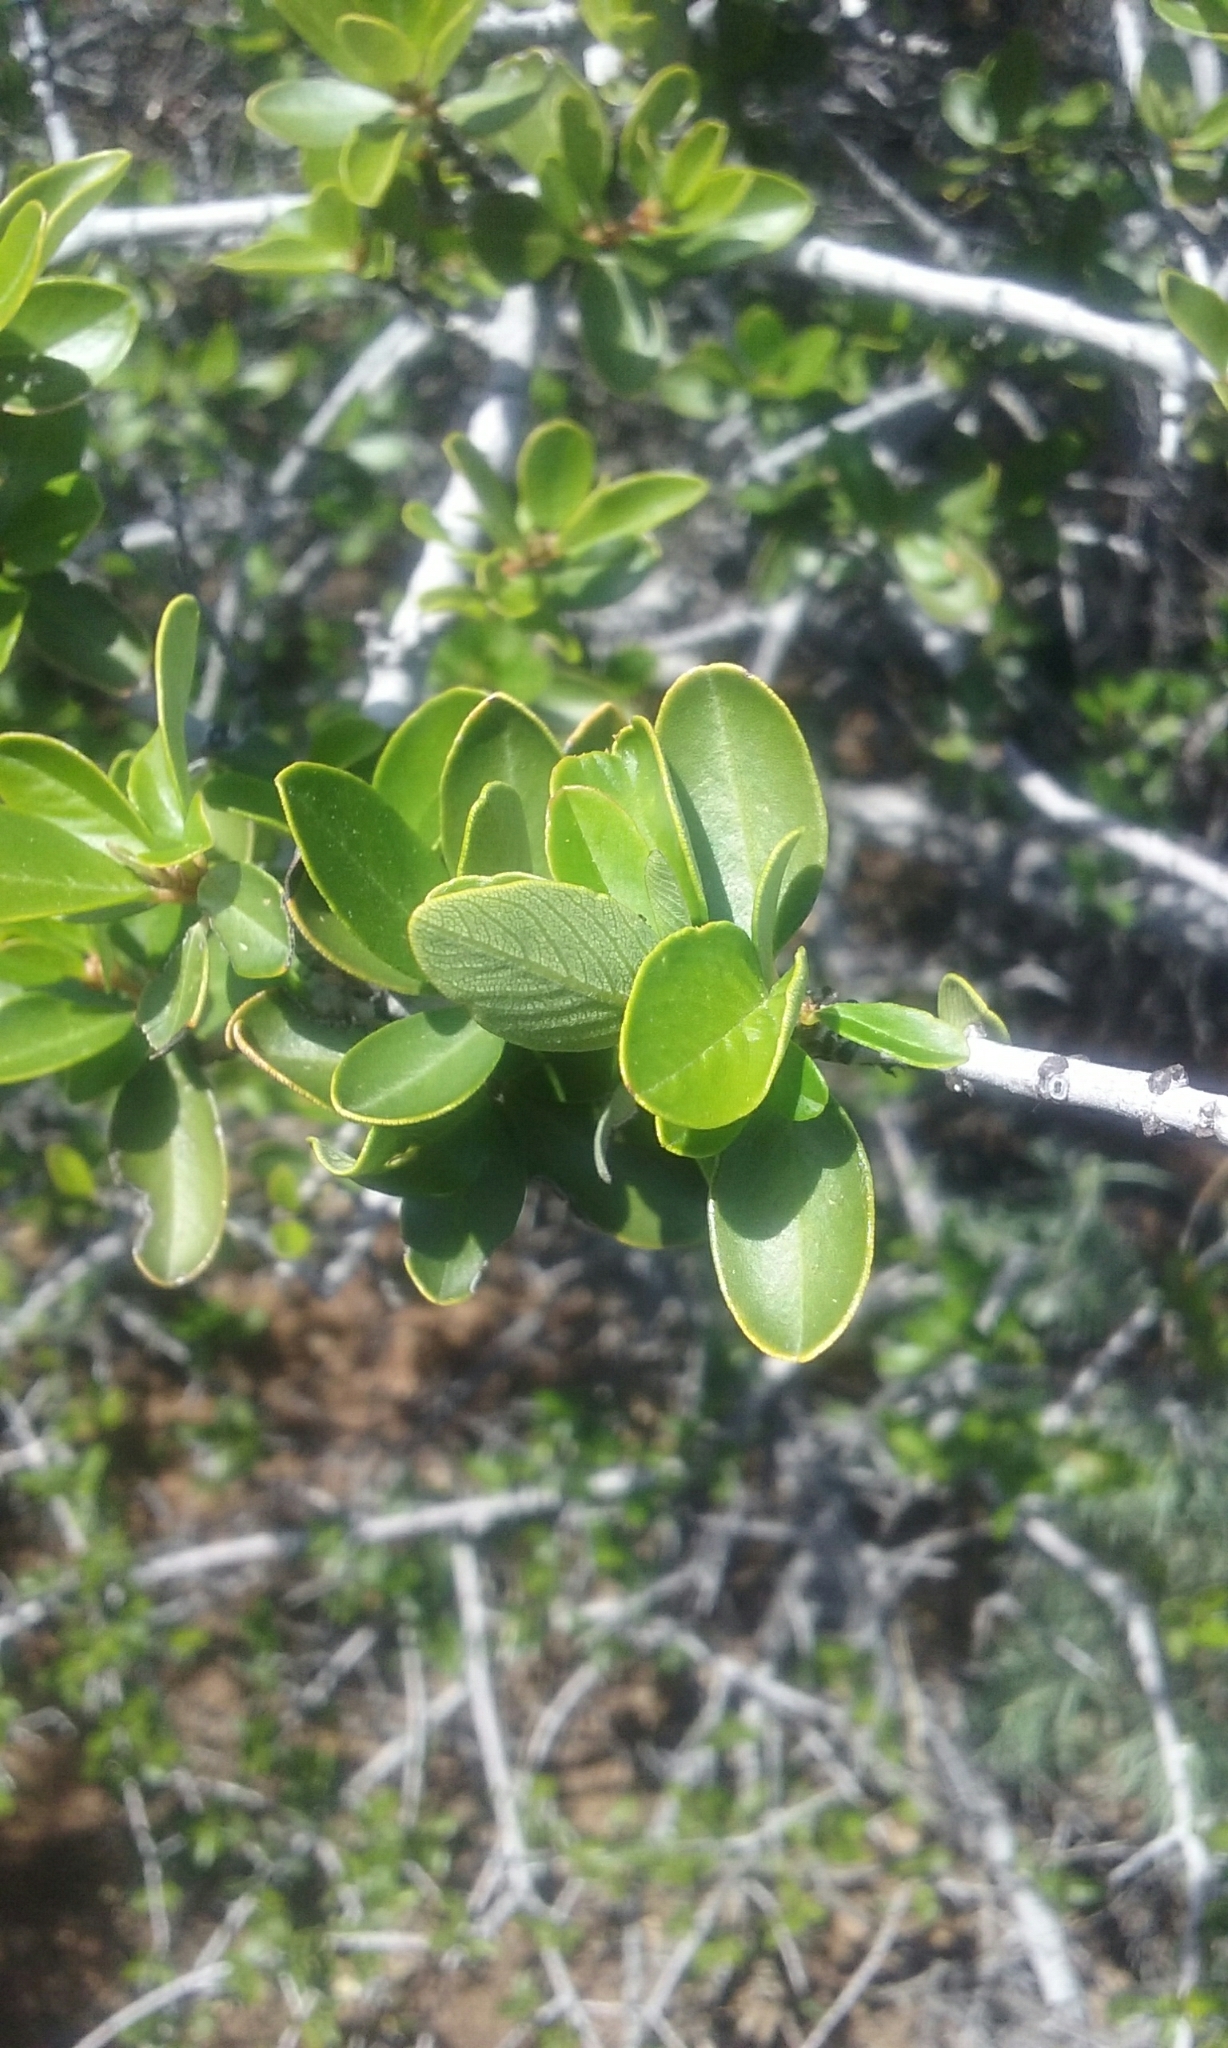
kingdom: Plantae
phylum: Tracheophyta
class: Magnoliopsida
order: Rosales
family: Rhamnaceae
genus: Ceanothus
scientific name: Ceanothus cuneatus
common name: Cuneate ceanothus
